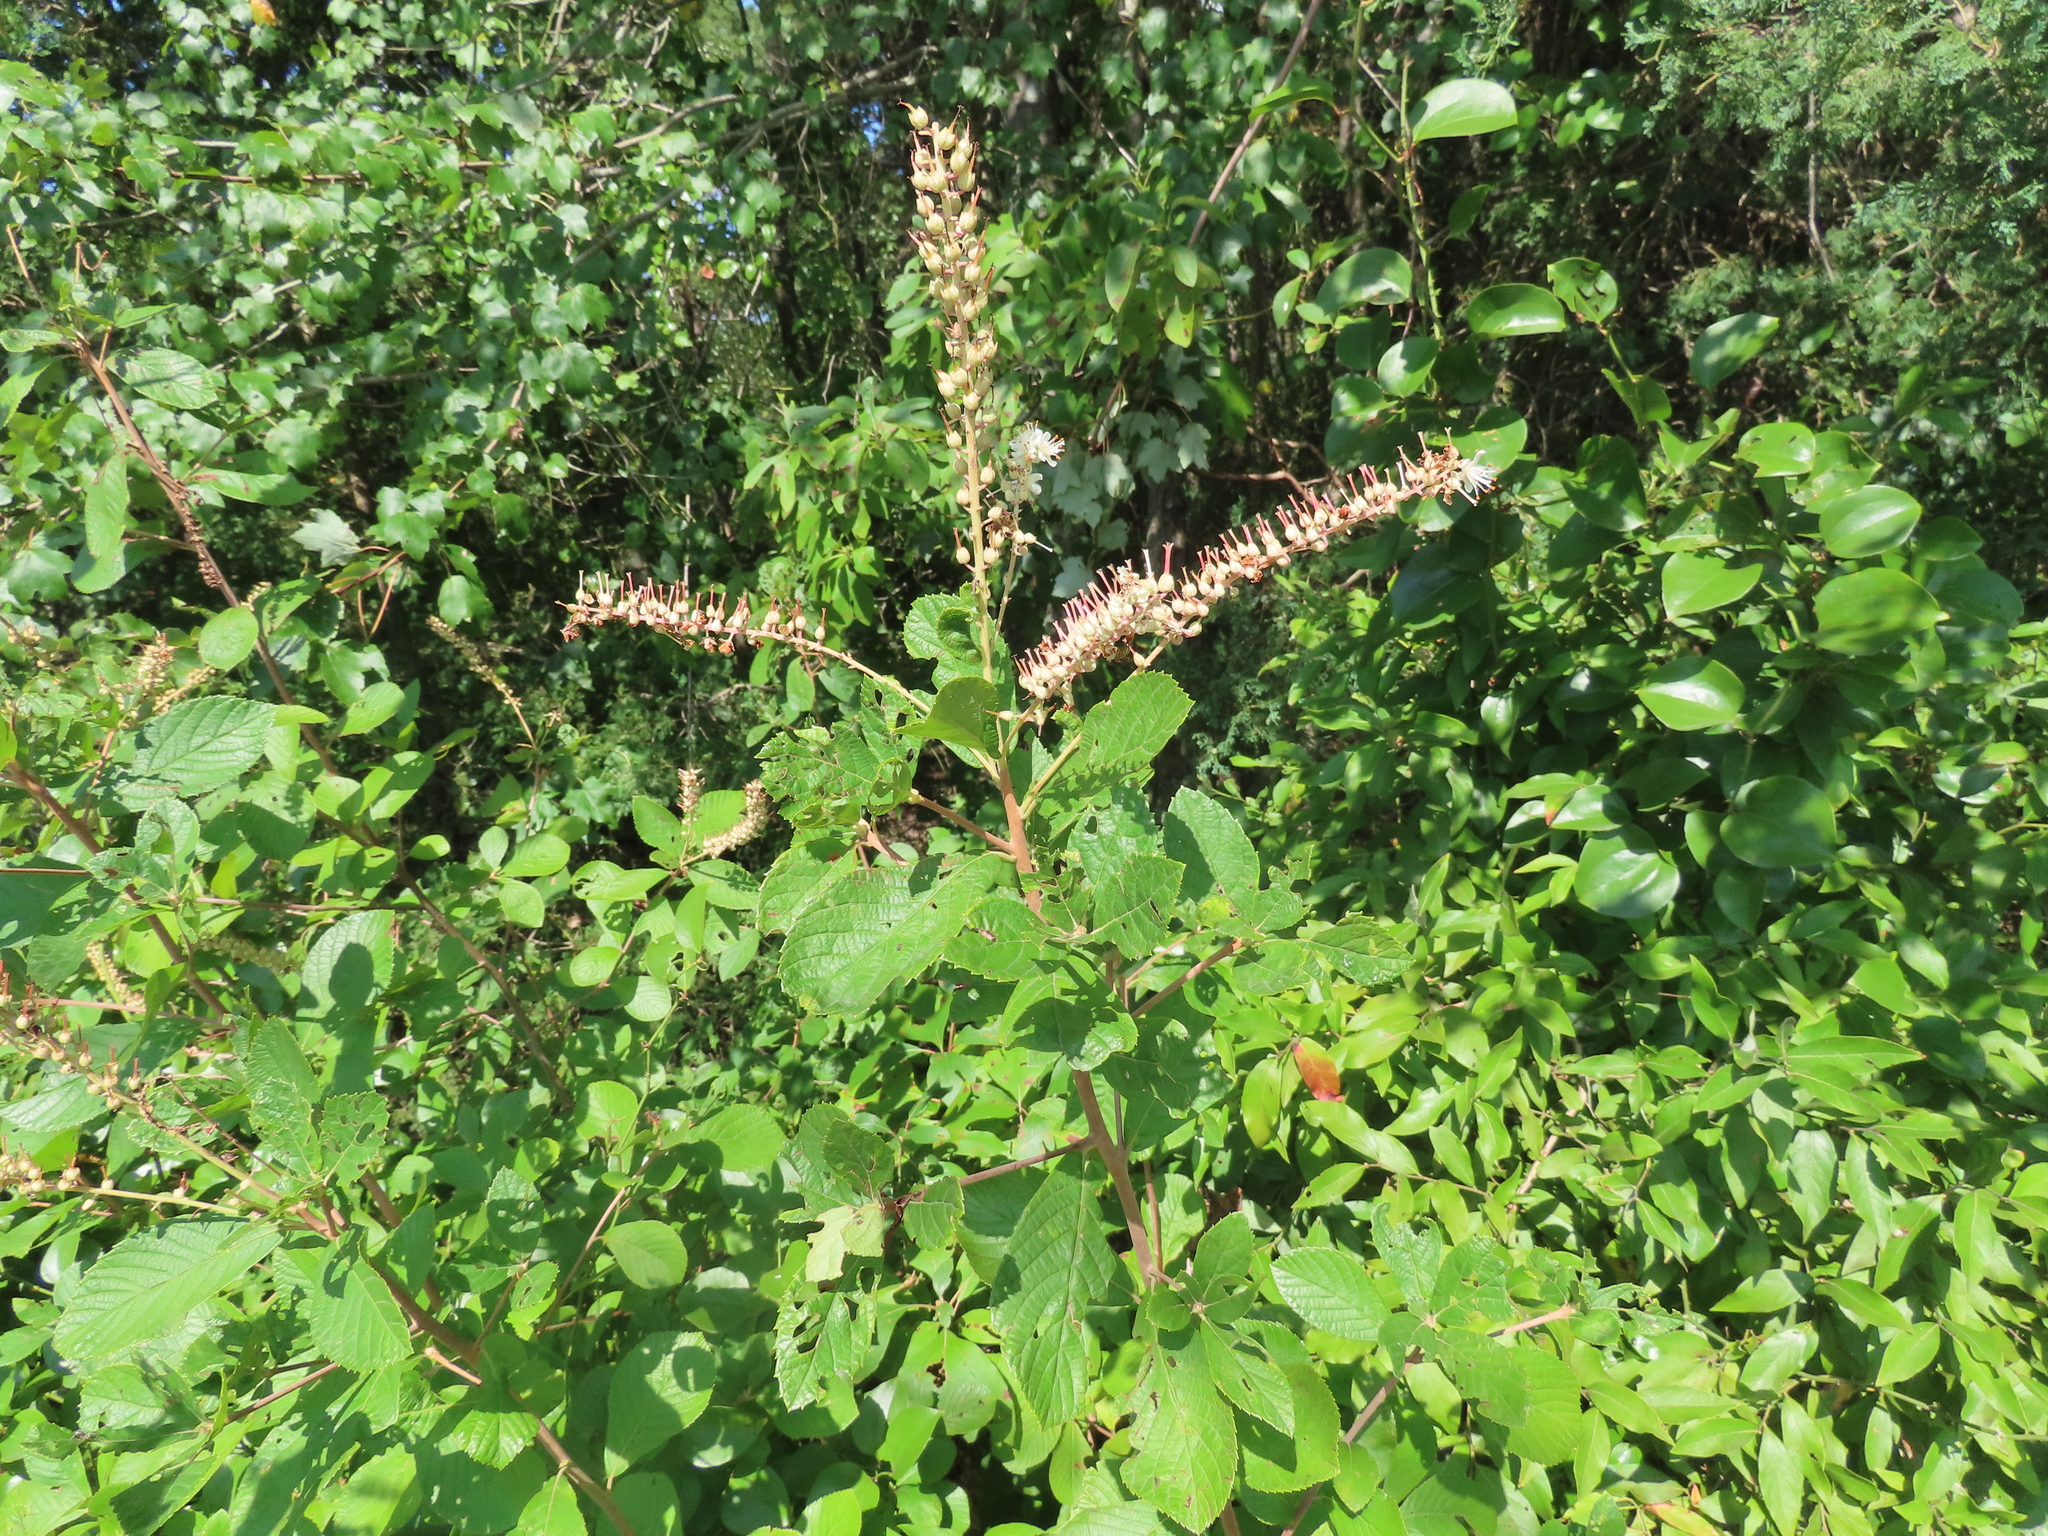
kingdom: Plantae
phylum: Tracheophyta
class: Magnoliopsida
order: Ericales
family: Clethraceae
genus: Clethra
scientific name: Clethra alnifolia
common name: Sweet pepperbush
